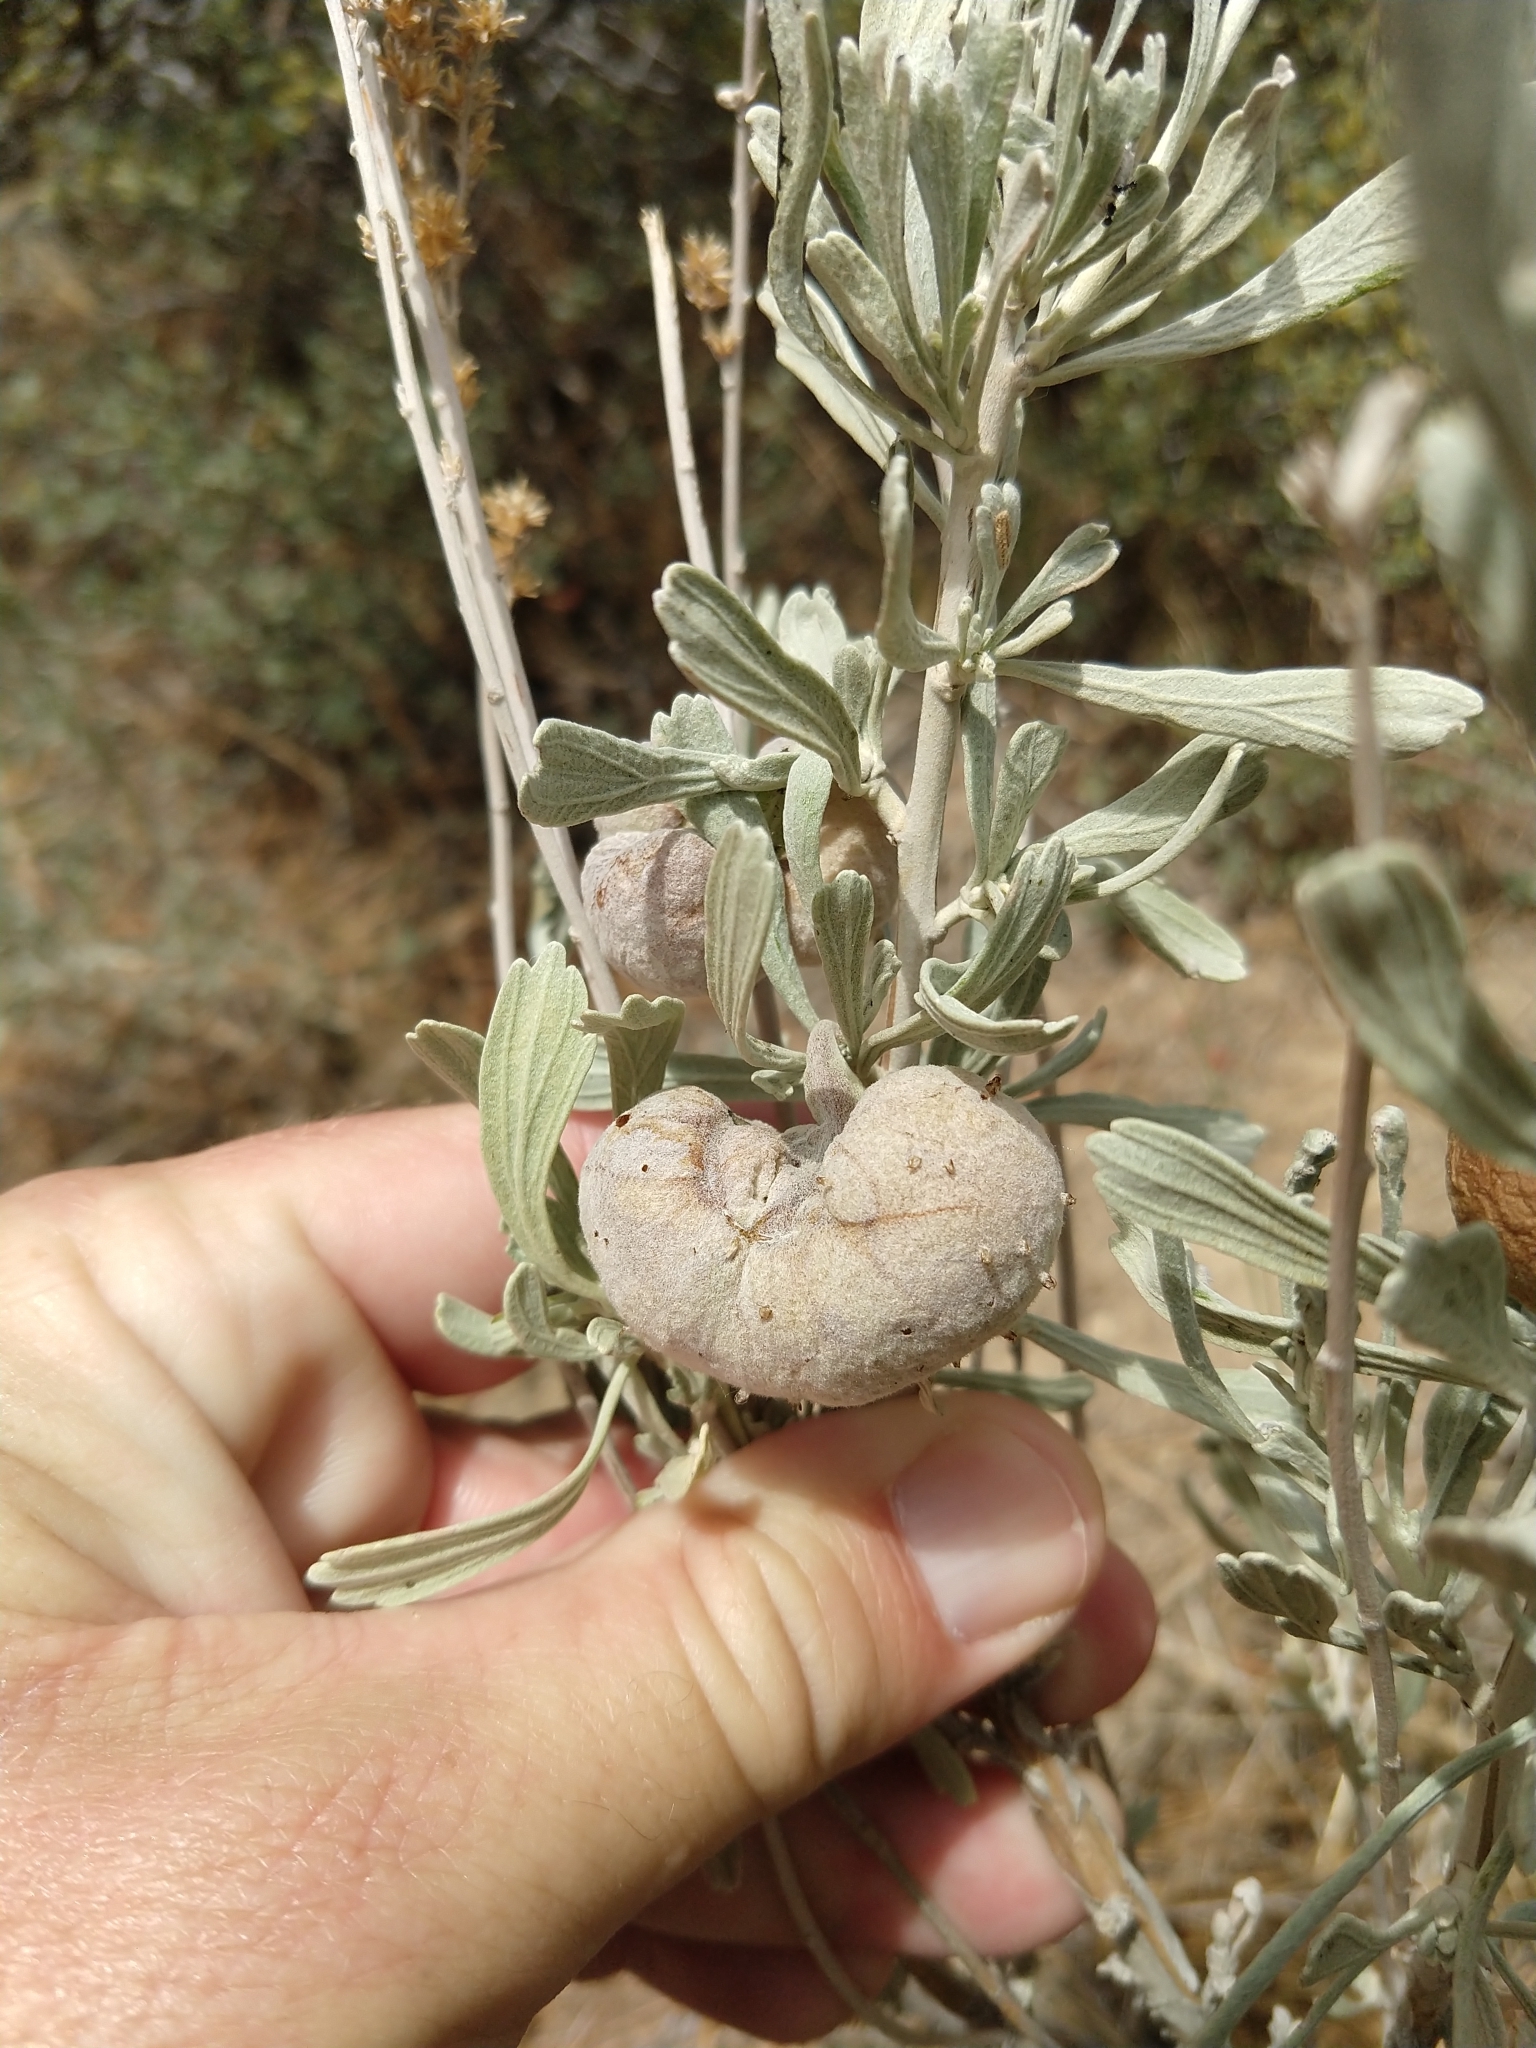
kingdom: Animalia
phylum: Arthropoda
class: Insecta
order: Diptera
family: Cecidomyiidae
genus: Rhopalomyia
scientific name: Rhopalomyia pomum
